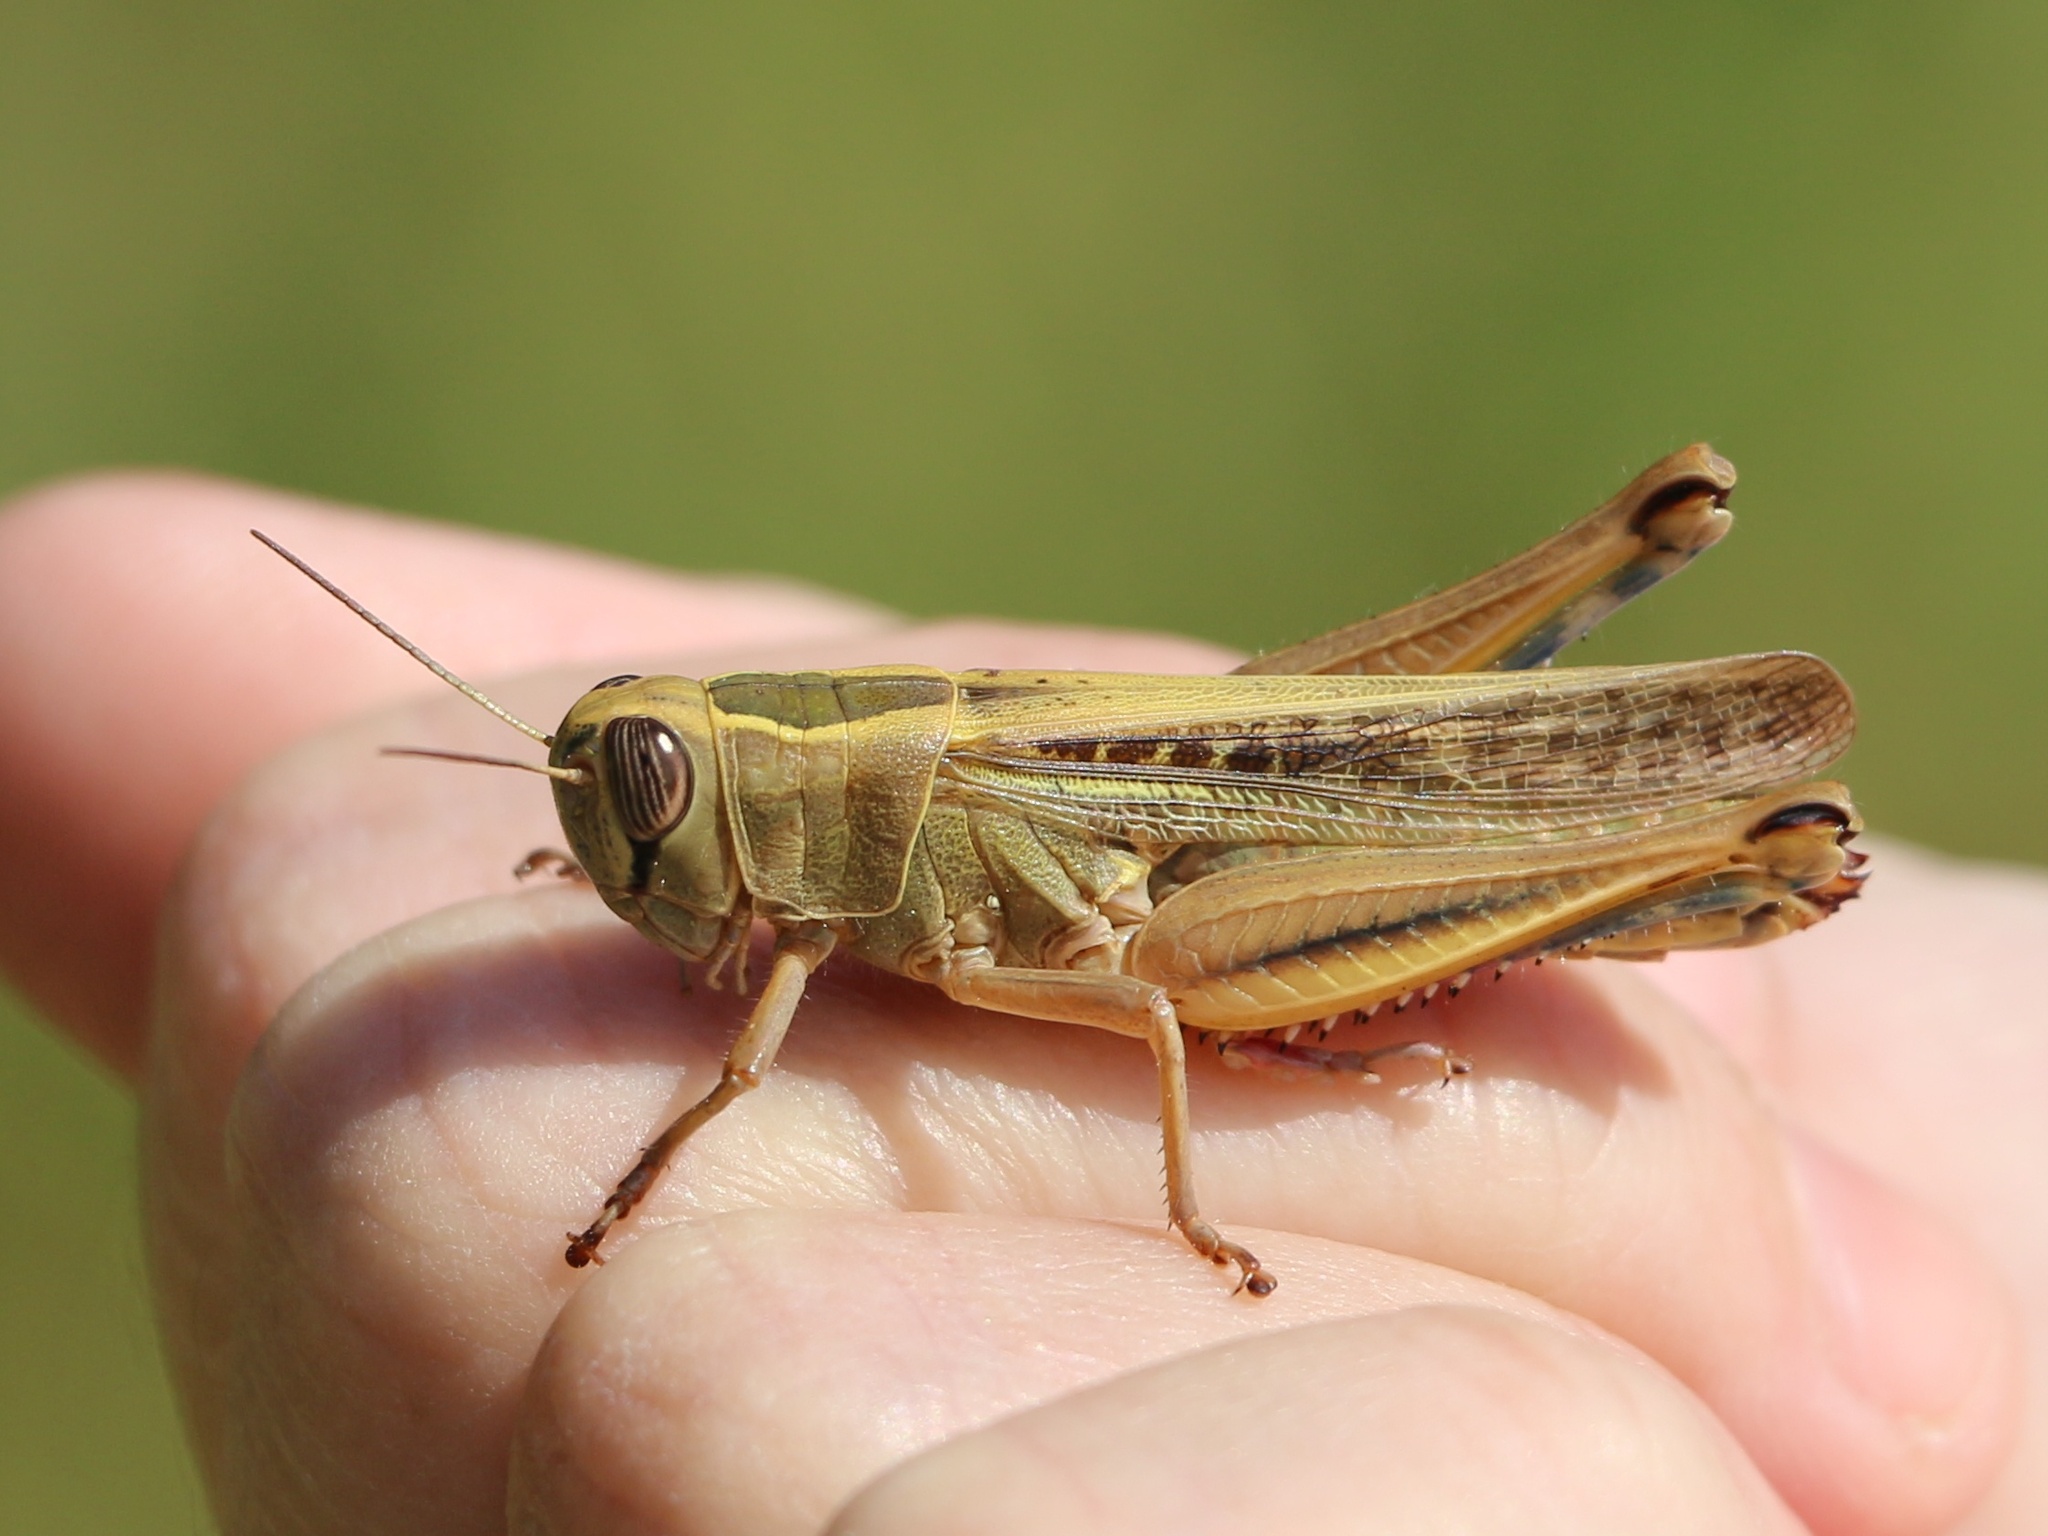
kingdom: Animalia
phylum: Arthropoda
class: Insecta
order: Orthoptera
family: Acrididae
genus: Eyprepocnemis
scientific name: Eyprepocnemis plorans
